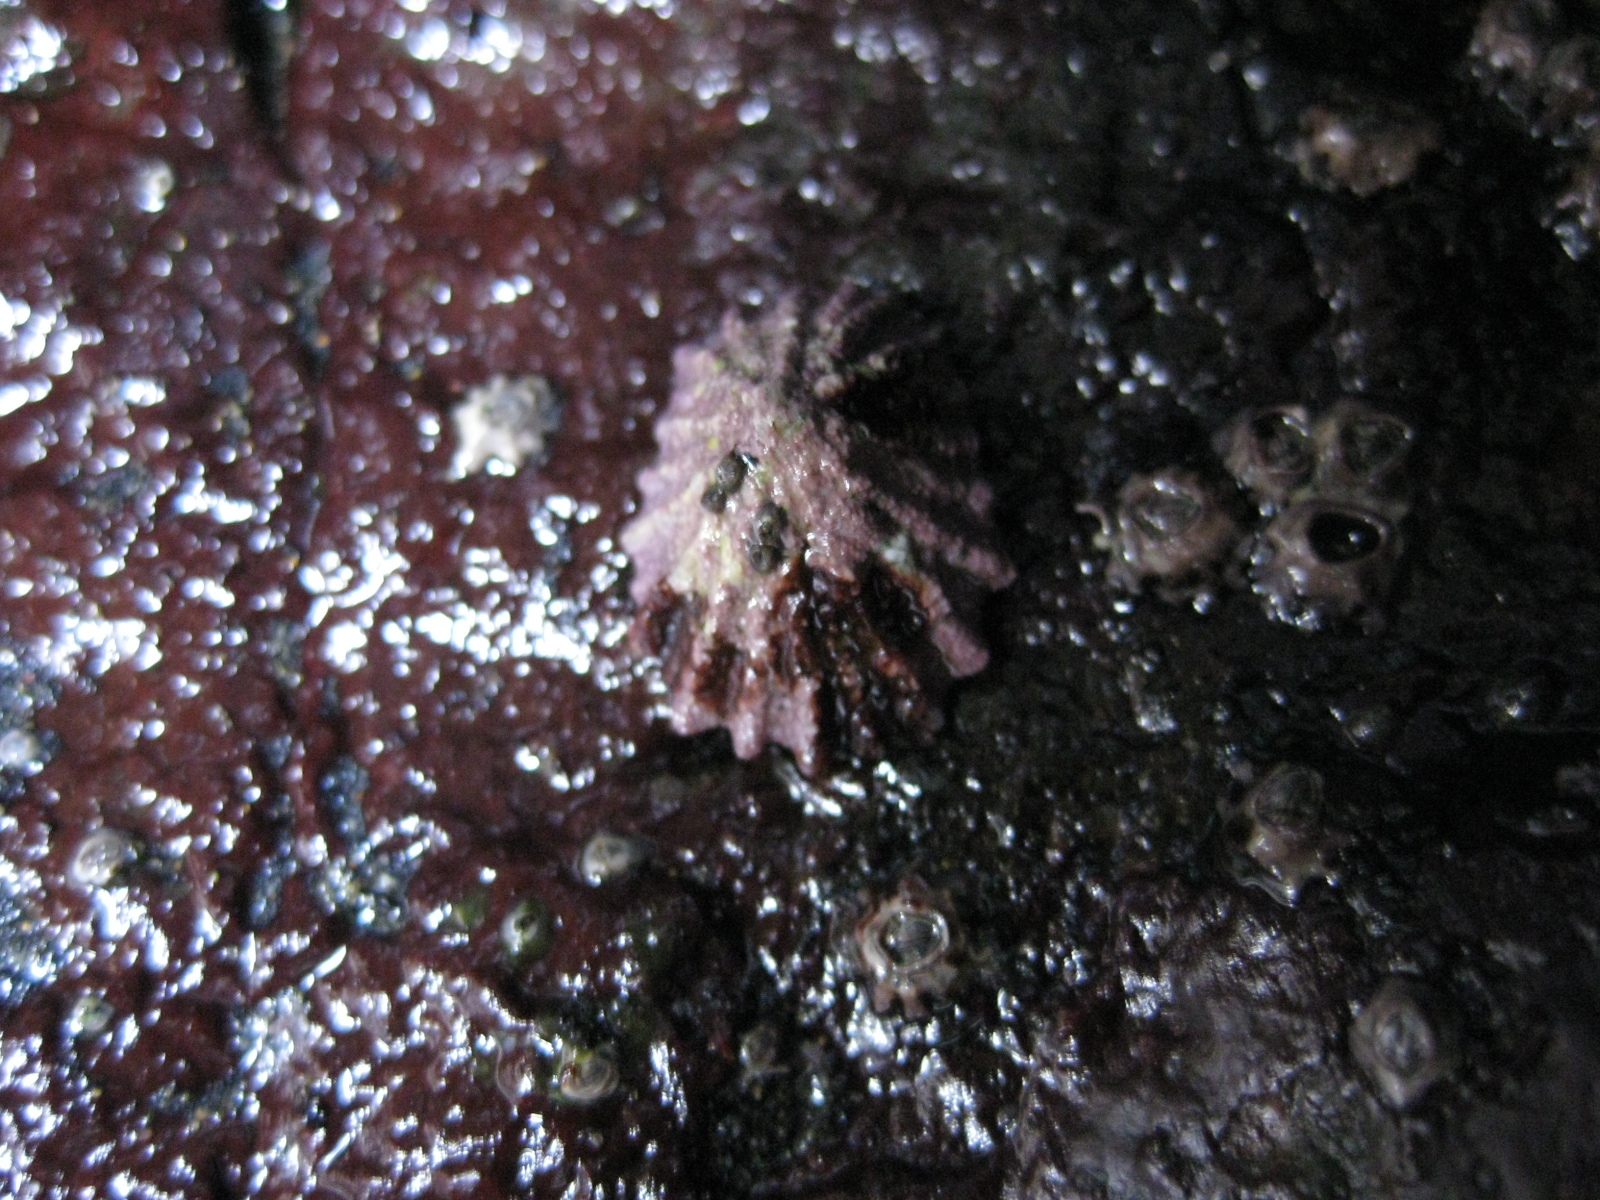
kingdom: Animalia
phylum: Mollusca
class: Gastropoda
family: Lottiidae
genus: Patelloida
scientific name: Patelloida corticata
